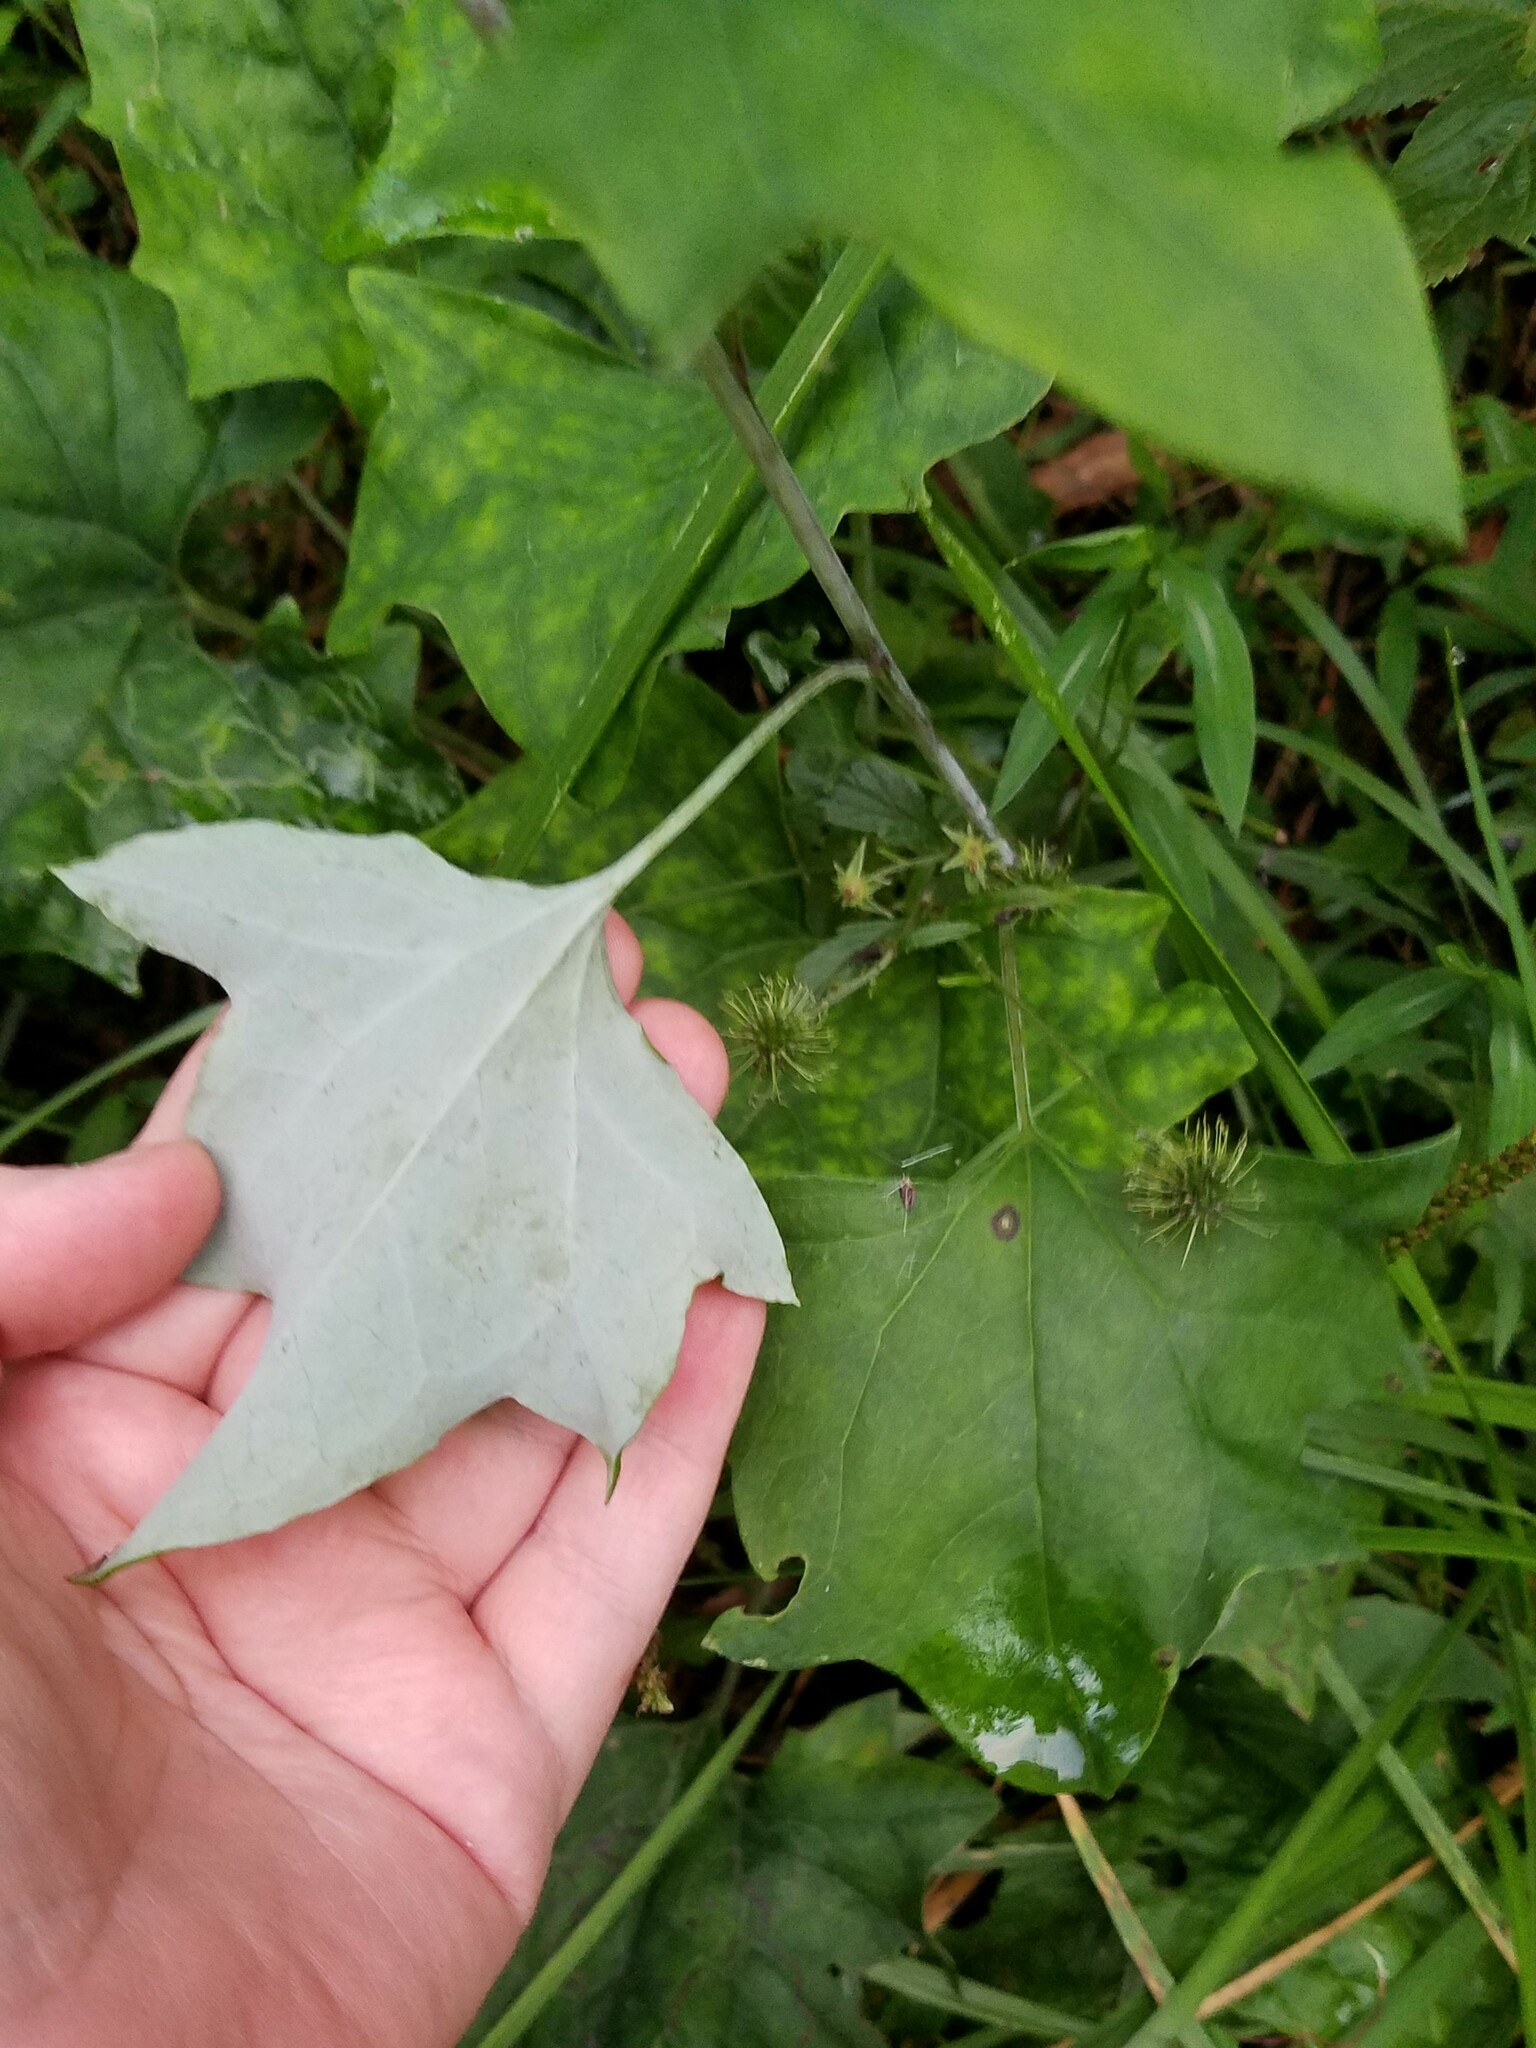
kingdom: Plantae
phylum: Tracheophyta
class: Magnoliopsida
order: Asterales
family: Asteraceae
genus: Arnoglossum
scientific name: Arnoglossum atriplicifolium
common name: Pale indian-plantain
